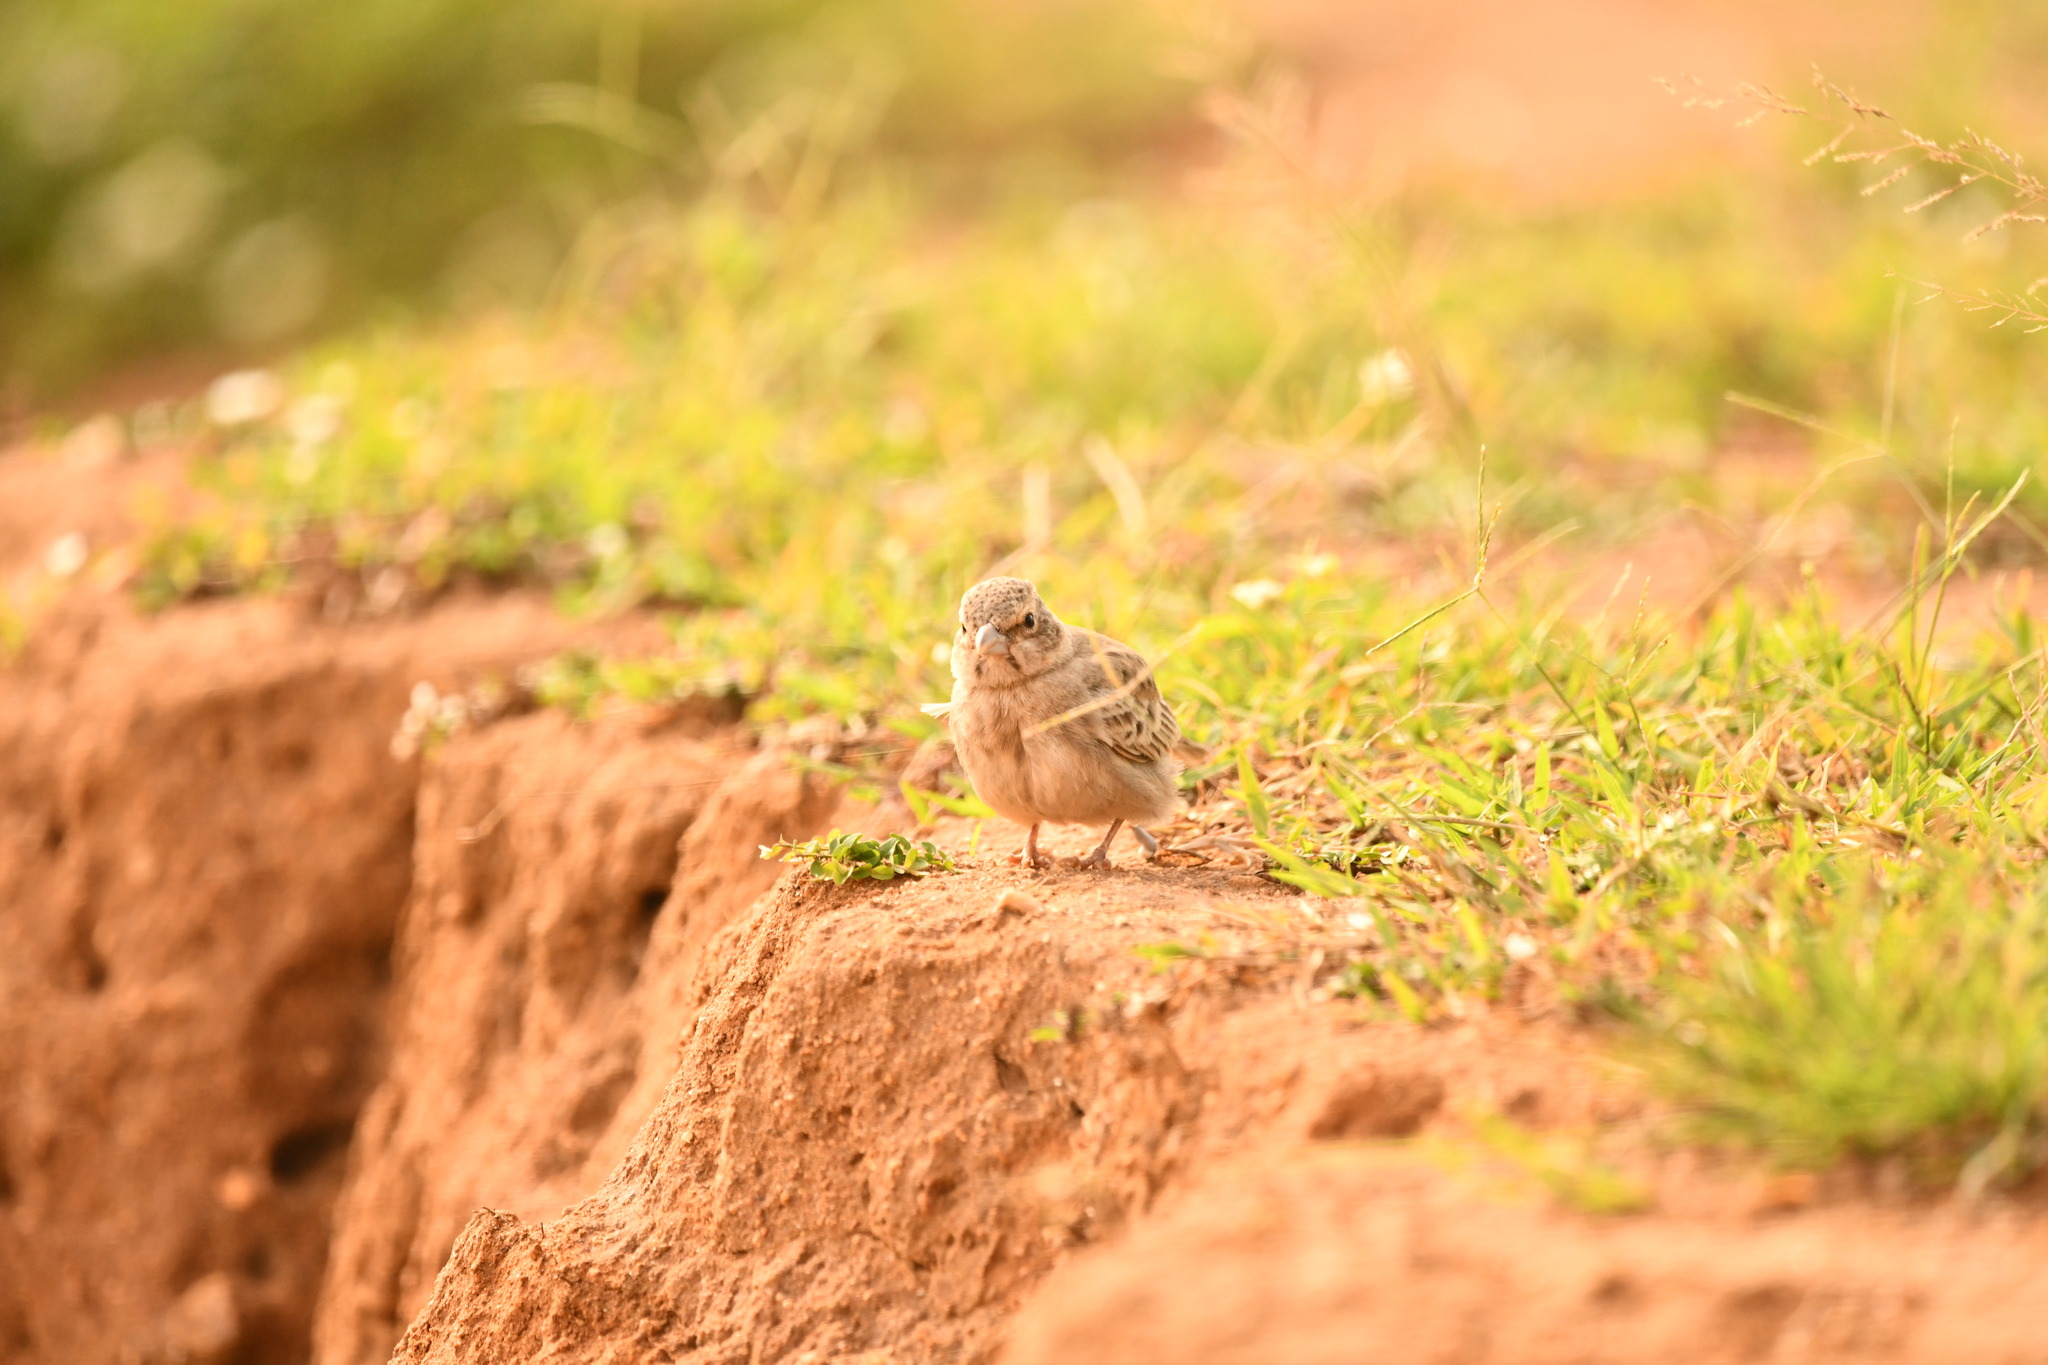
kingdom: Animalia
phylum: Chordata
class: Aves
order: Passeriformes
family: Alaudidae
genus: Eremopterix
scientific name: Eremopterix griseus
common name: Ashy-crowned sparrow-lark
